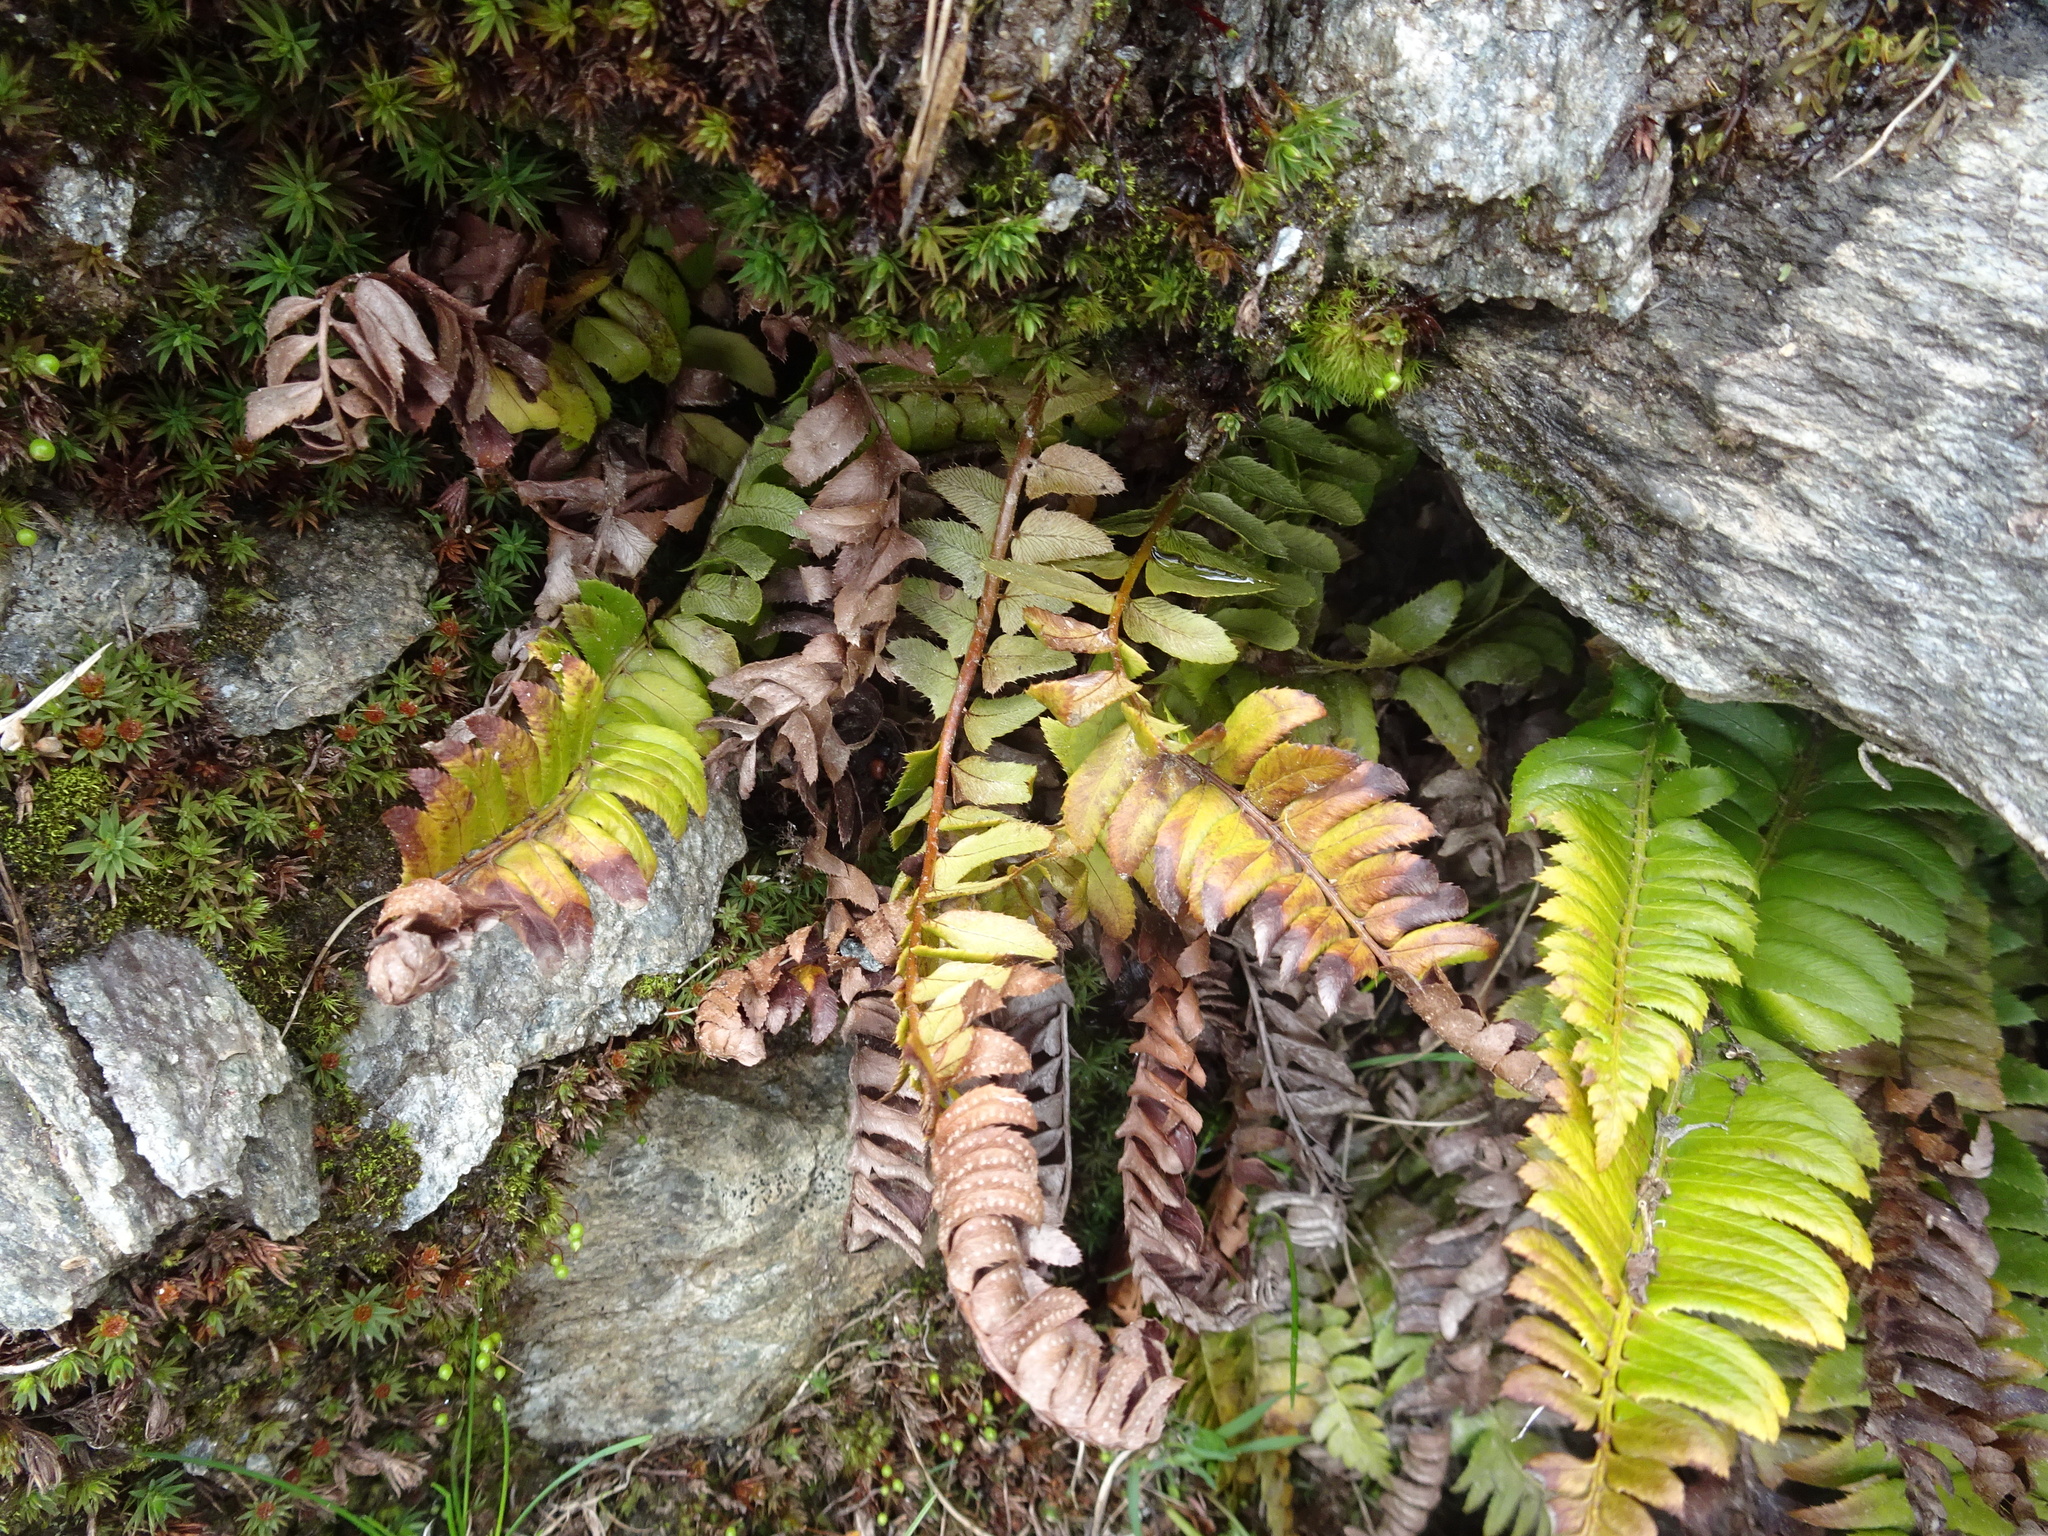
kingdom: Plantae
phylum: Tracheophyta
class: Polypodiopsida
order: Polypodiales
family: Dryopteridaceae
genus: Polystichum
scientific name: Polystichum lonchitis
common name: Holly fern
